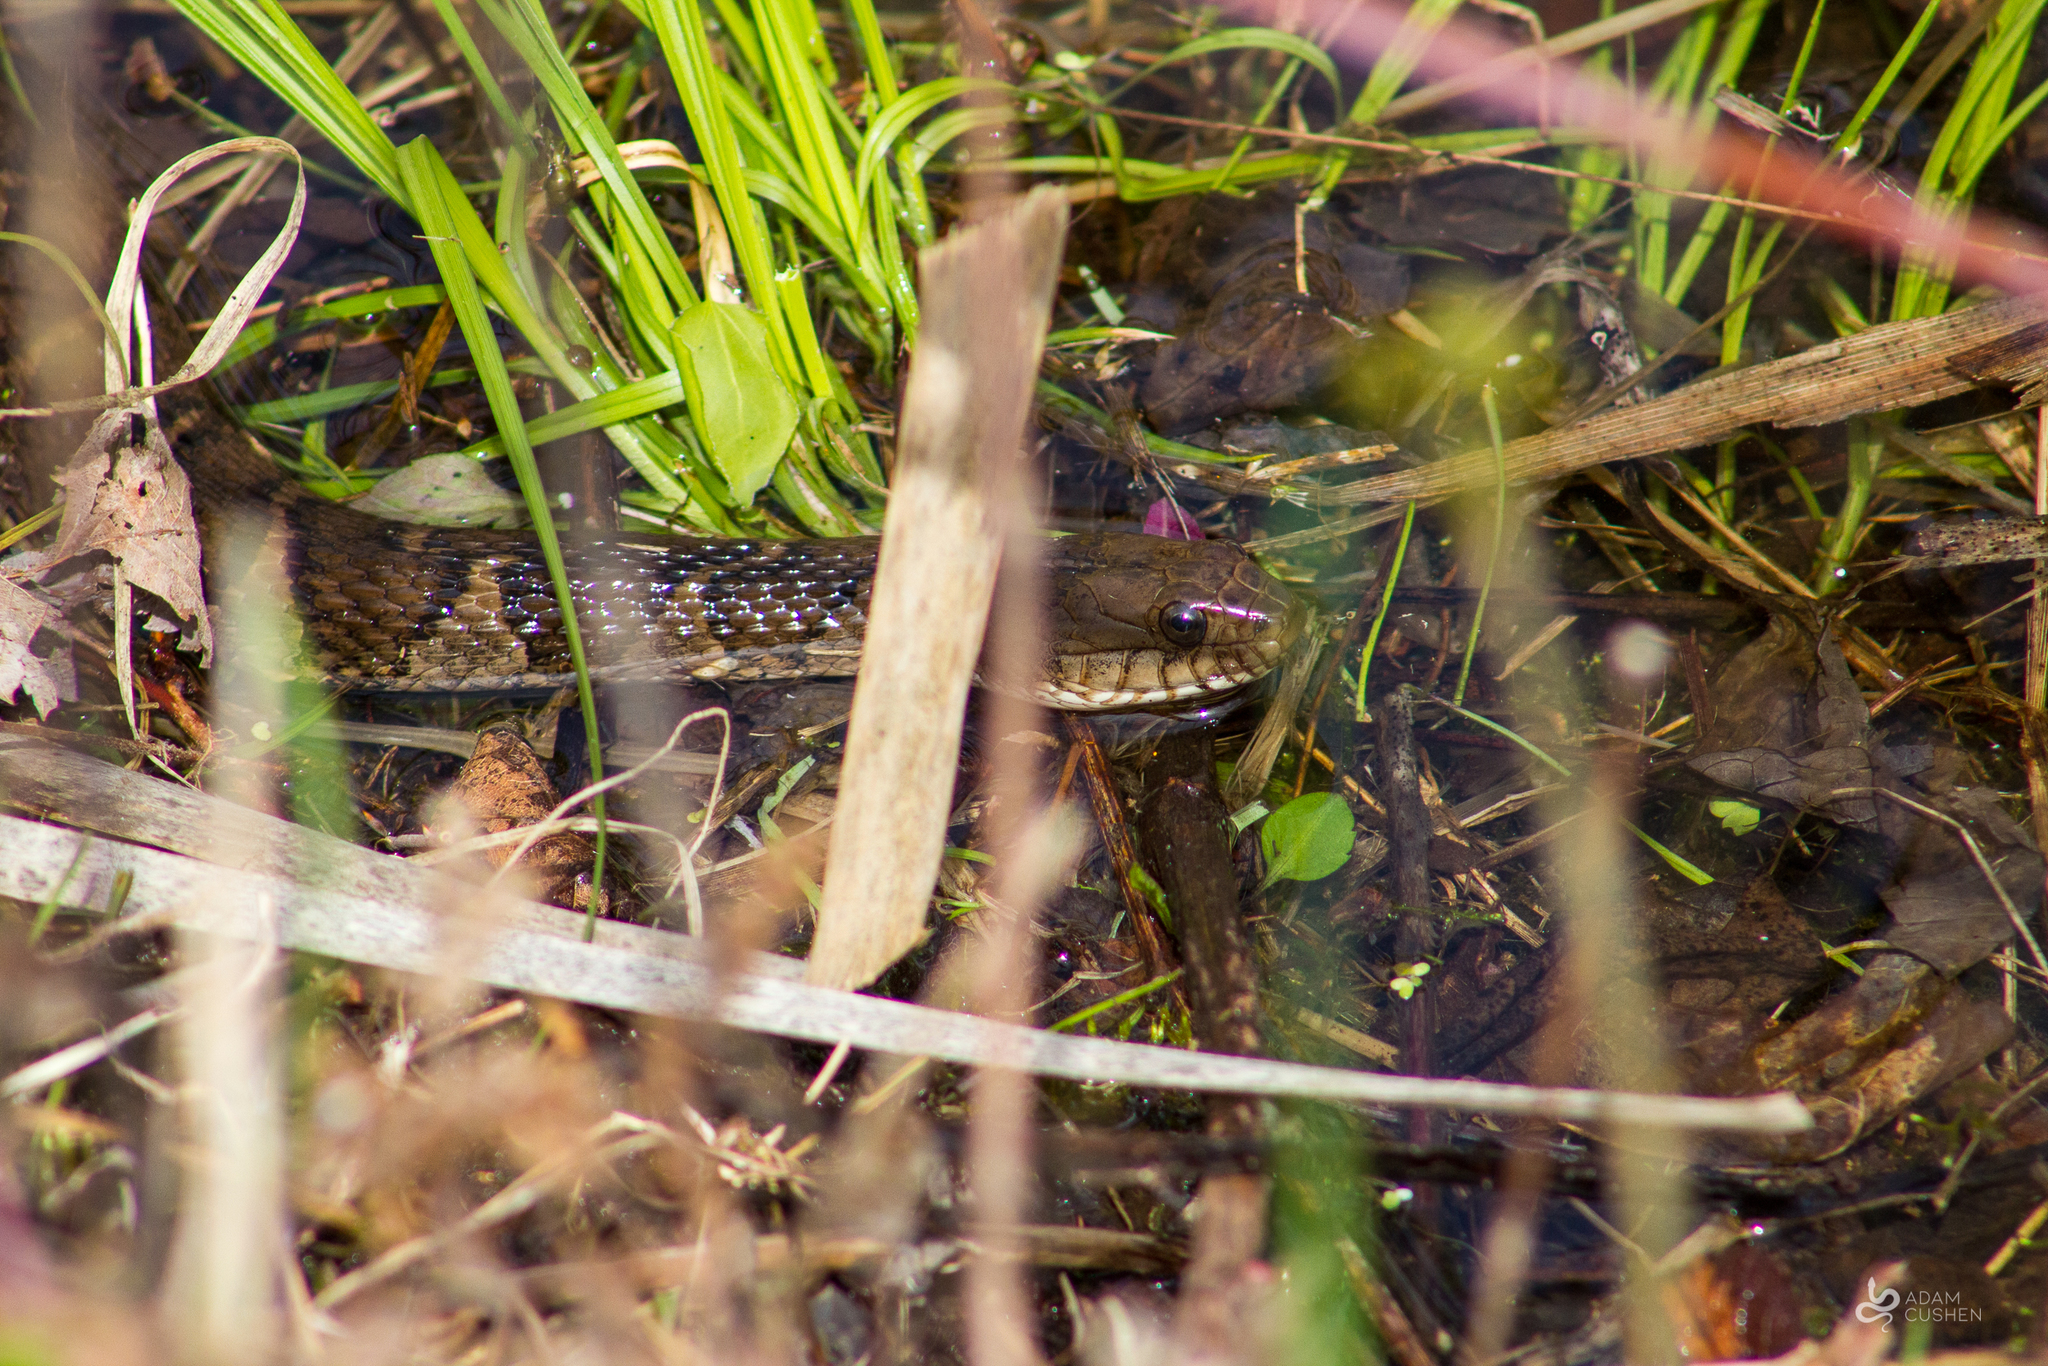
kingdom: Animalia
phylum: Chordata
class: Squamata
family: Colubridae
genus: Nerodia
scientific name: Nerodia sipedon
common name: Northern water snake
